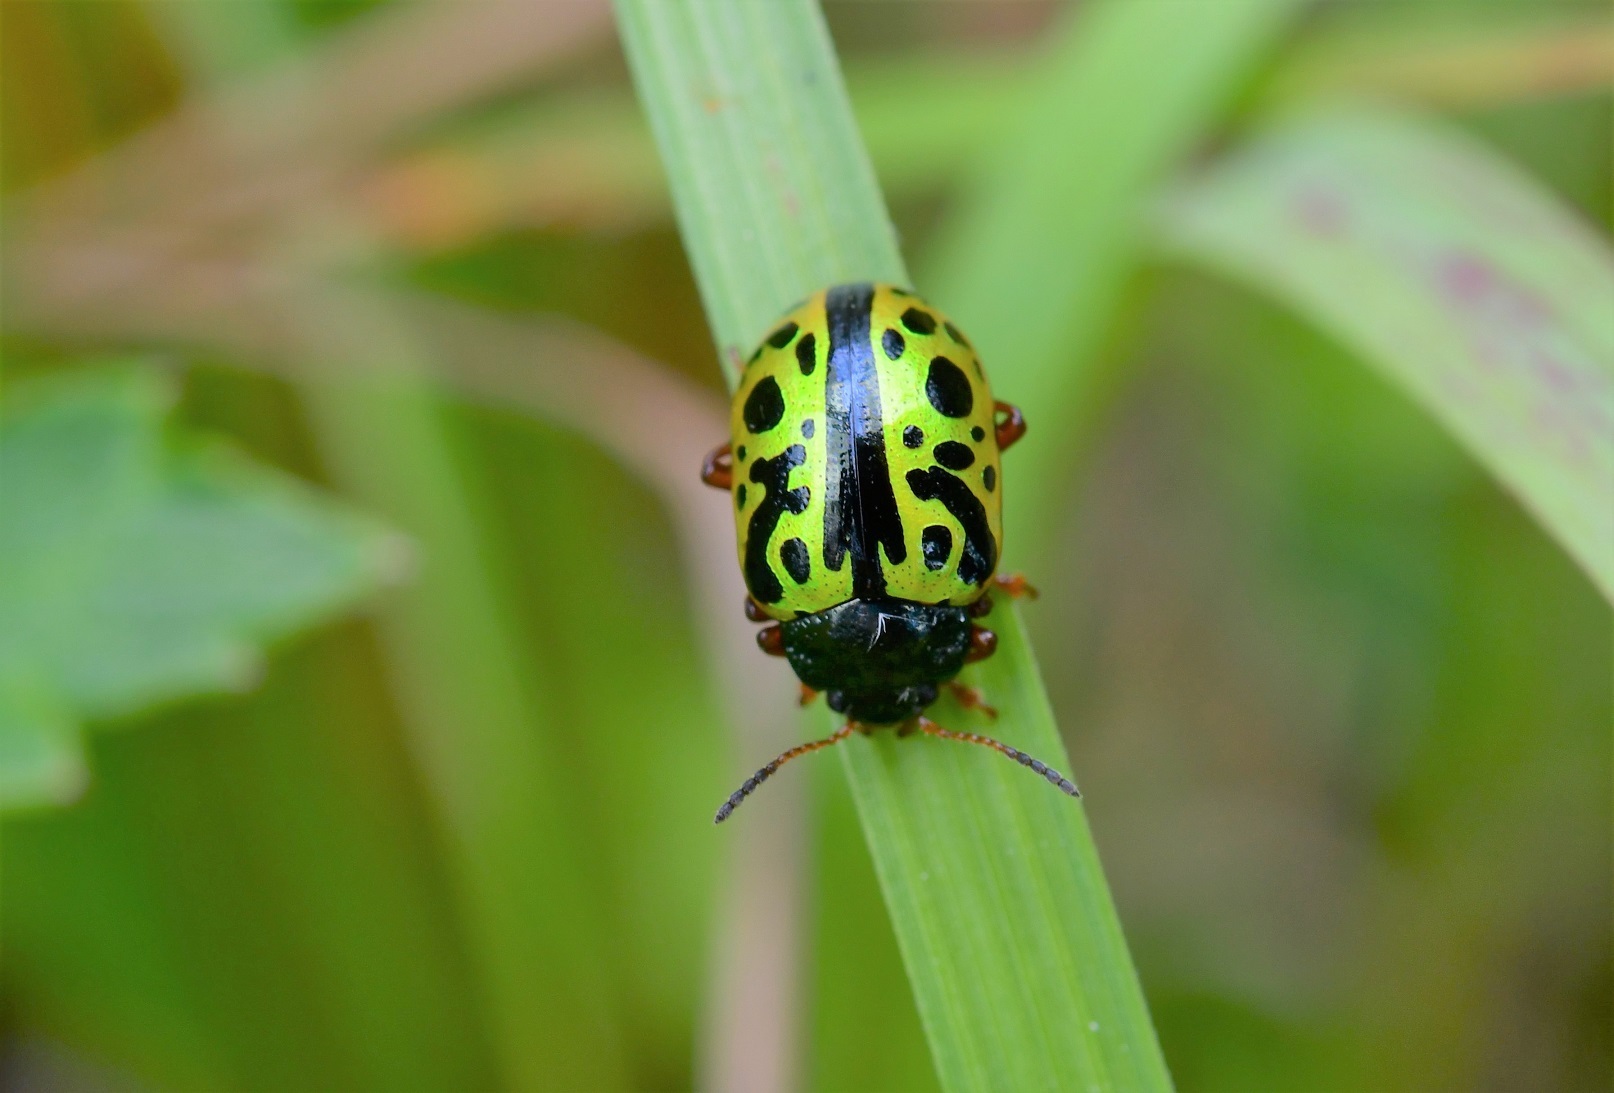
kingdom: Animalia
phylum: Arthropoda
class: Insecta
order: Coleoptera
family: Chrysomelidae
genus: Calligrapha
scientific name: Calligrapha fulvipes
